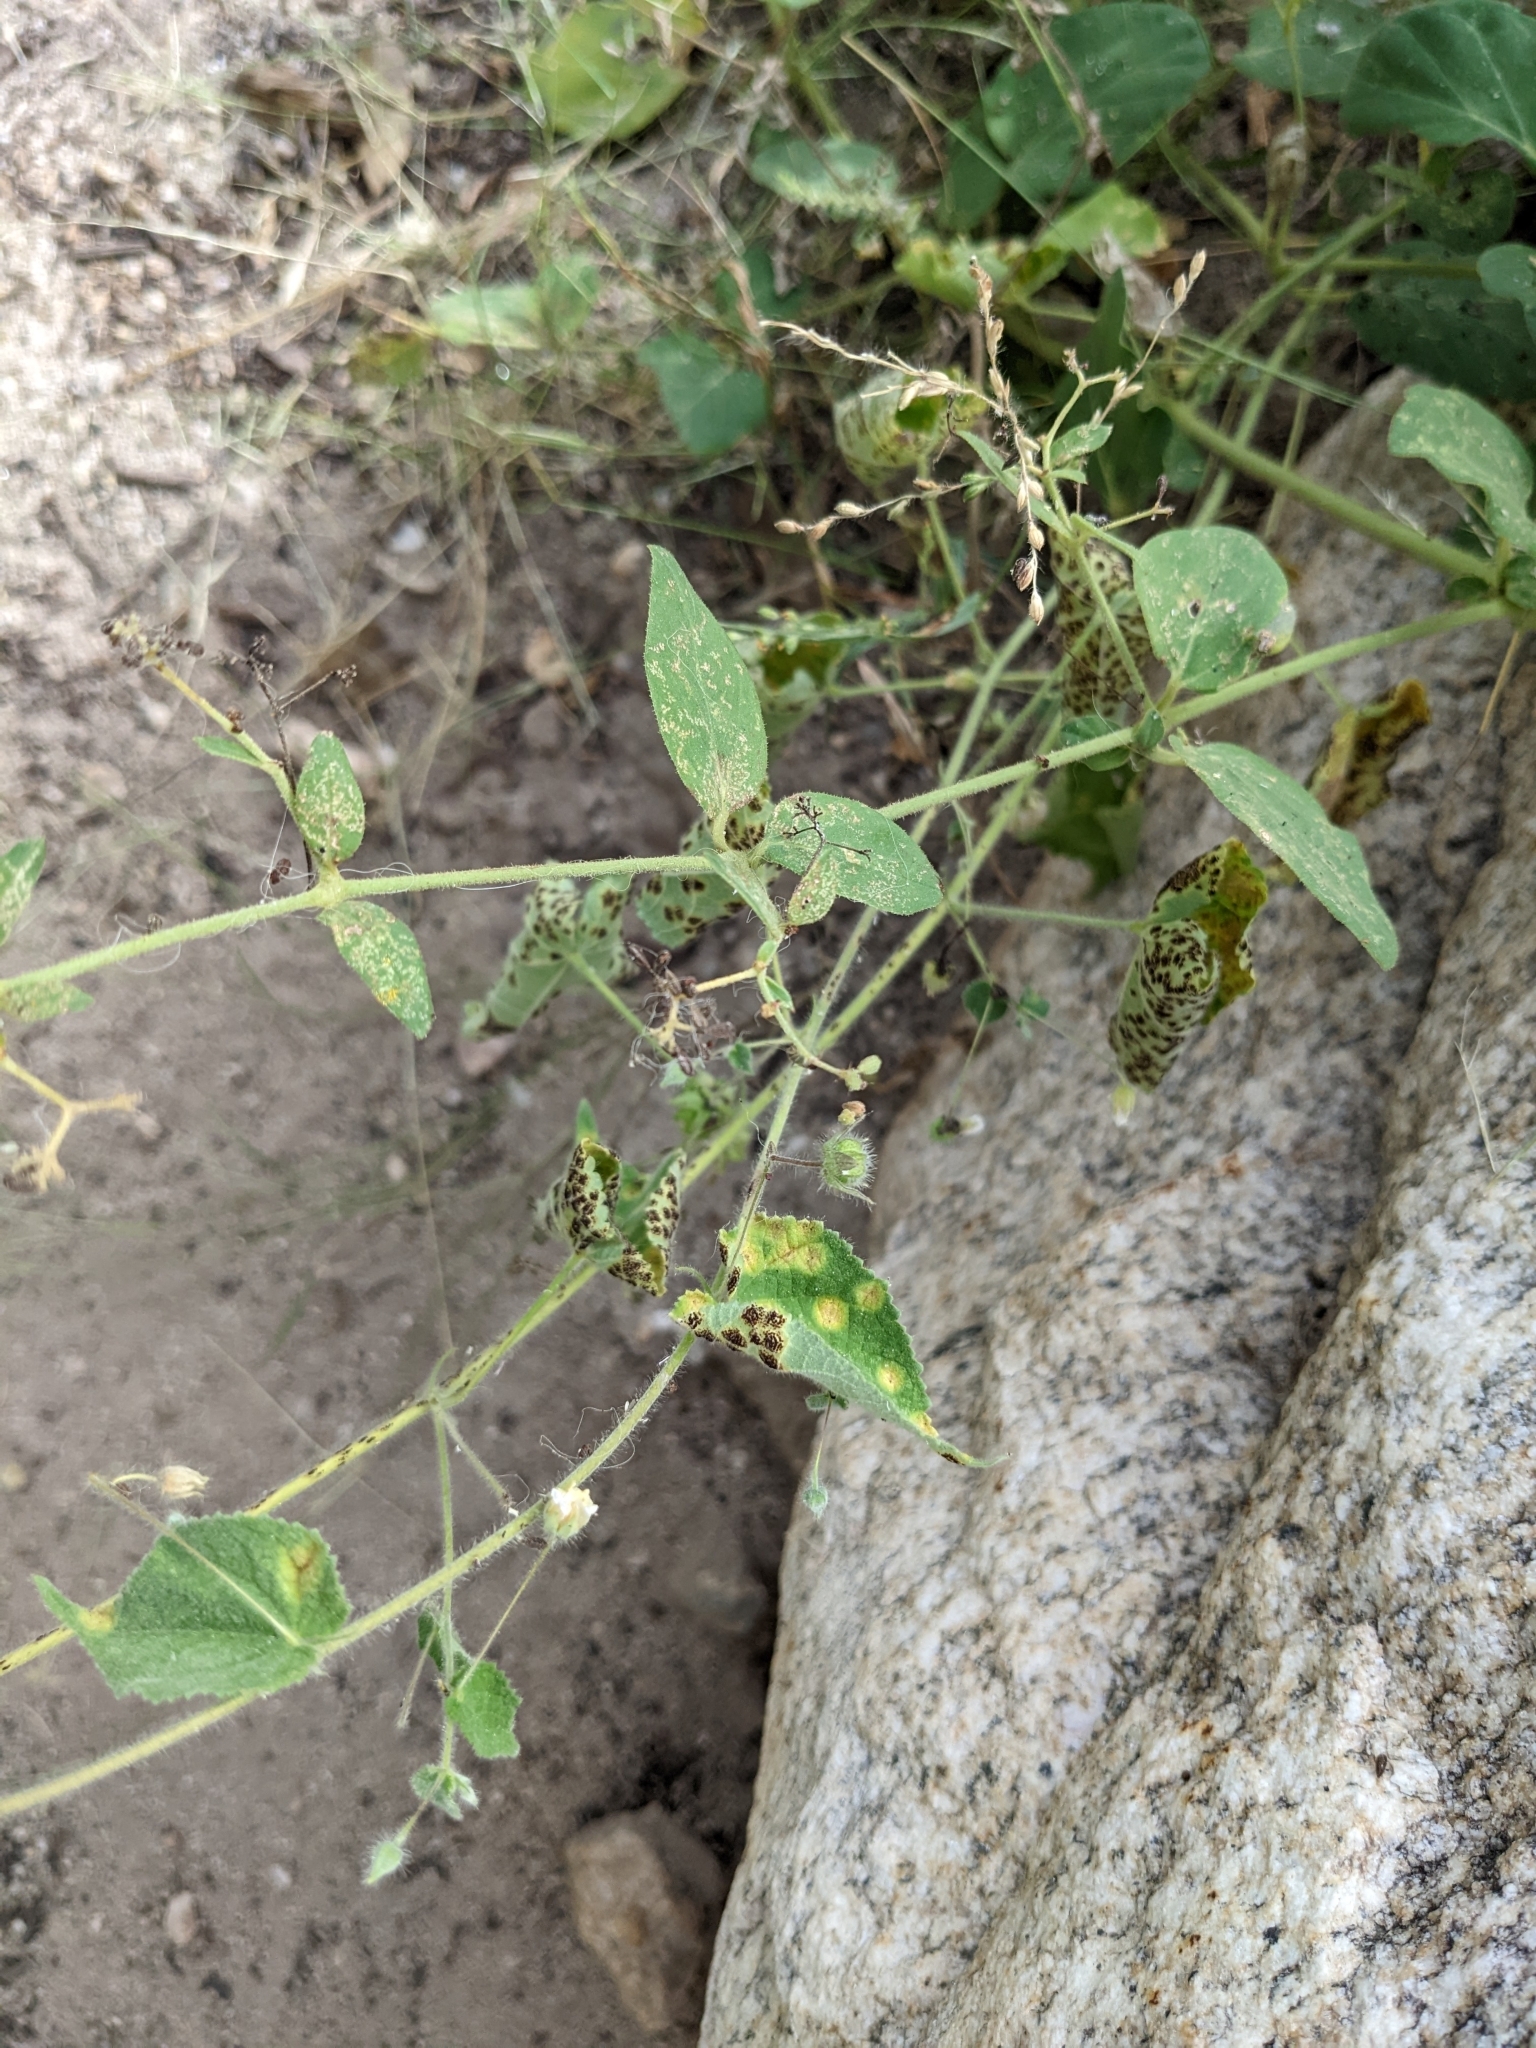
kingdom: Plantae
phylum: Tracheophyta
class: Magnoliopsida
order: Malvales
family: Malvaceae
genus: Herissantia
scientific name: Herissantia crispa
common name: Bladdermallow
